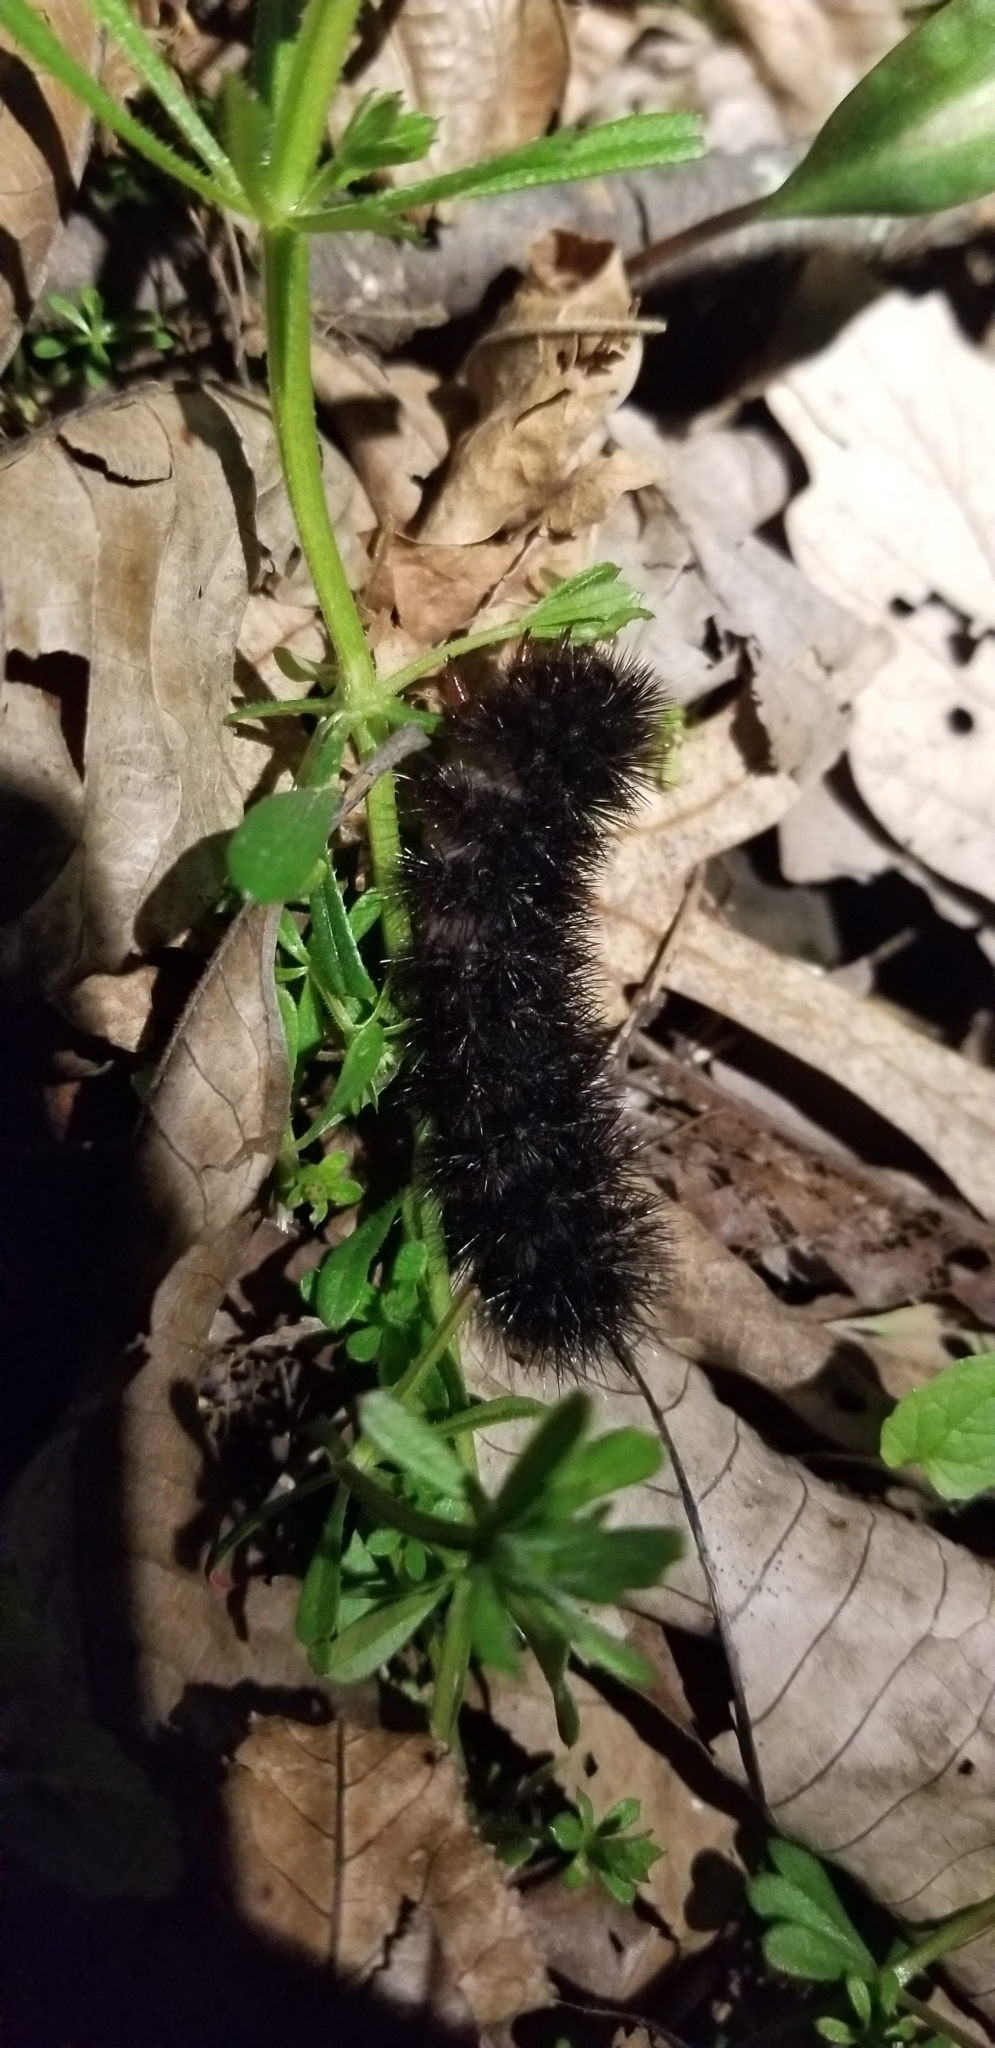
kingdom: Animalia
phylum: Arthropoda
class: Insecta
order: Lepidoptera
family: Erebidae
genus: Hypercompe
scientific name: Hypercompe scribonia
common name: Giant leopard moth
